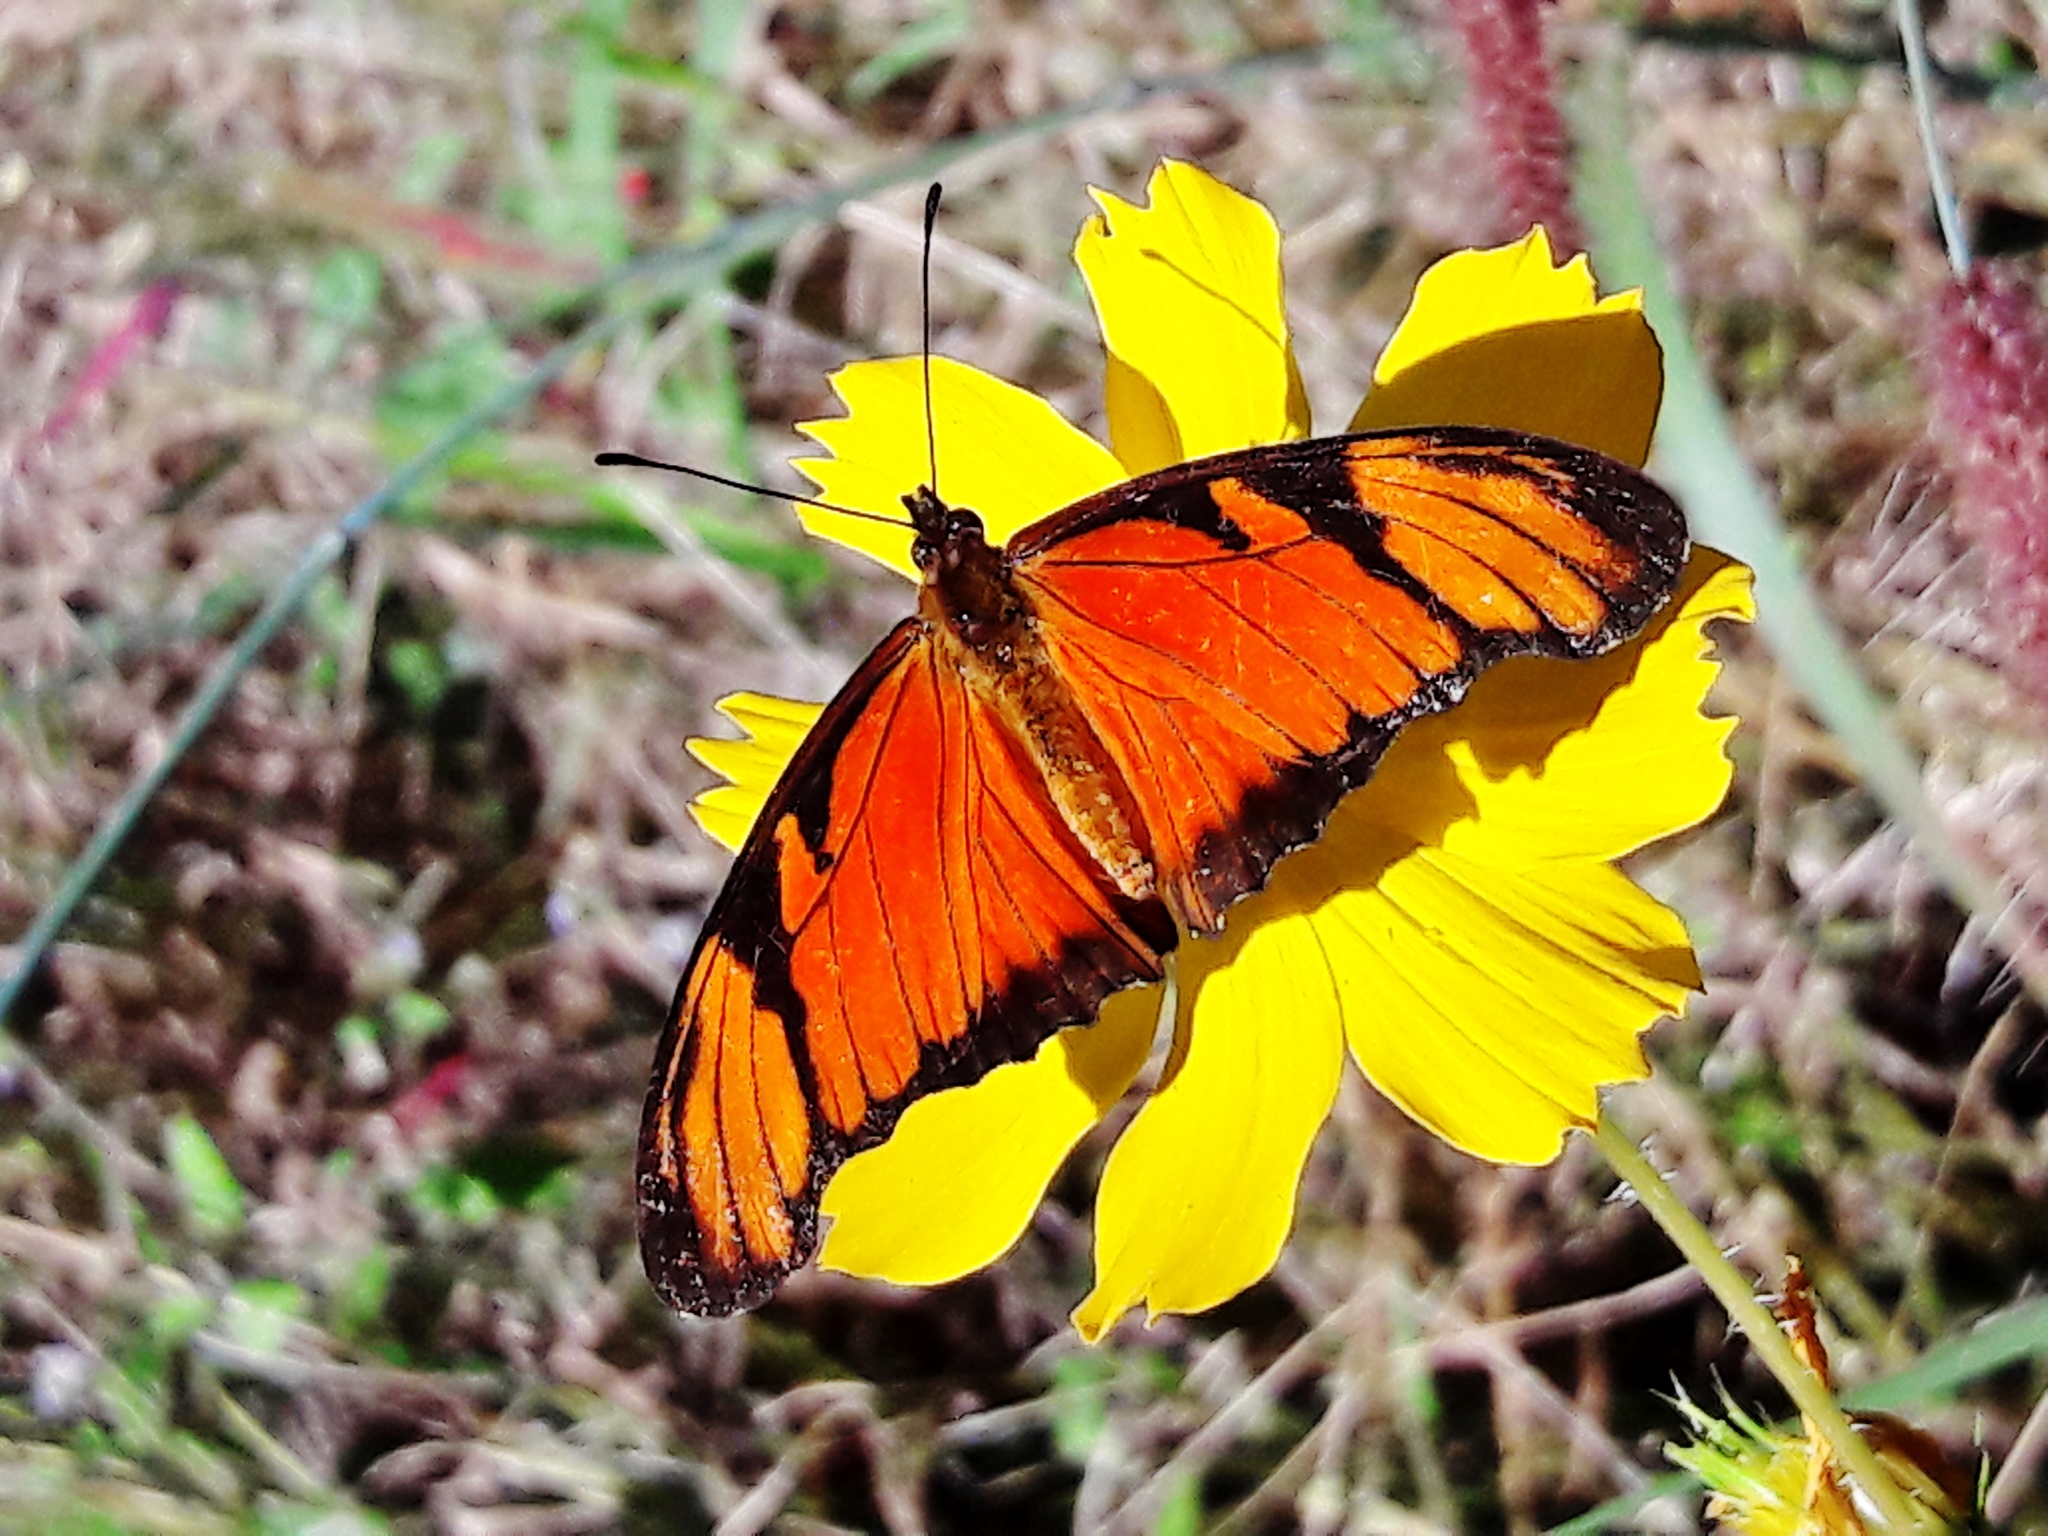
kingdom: Animalia
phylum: Arthropoda
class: Insecta
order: Lepidoptera
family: Nymphalidae
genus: Dione
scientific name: Dione juno
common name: Juno silverspot
